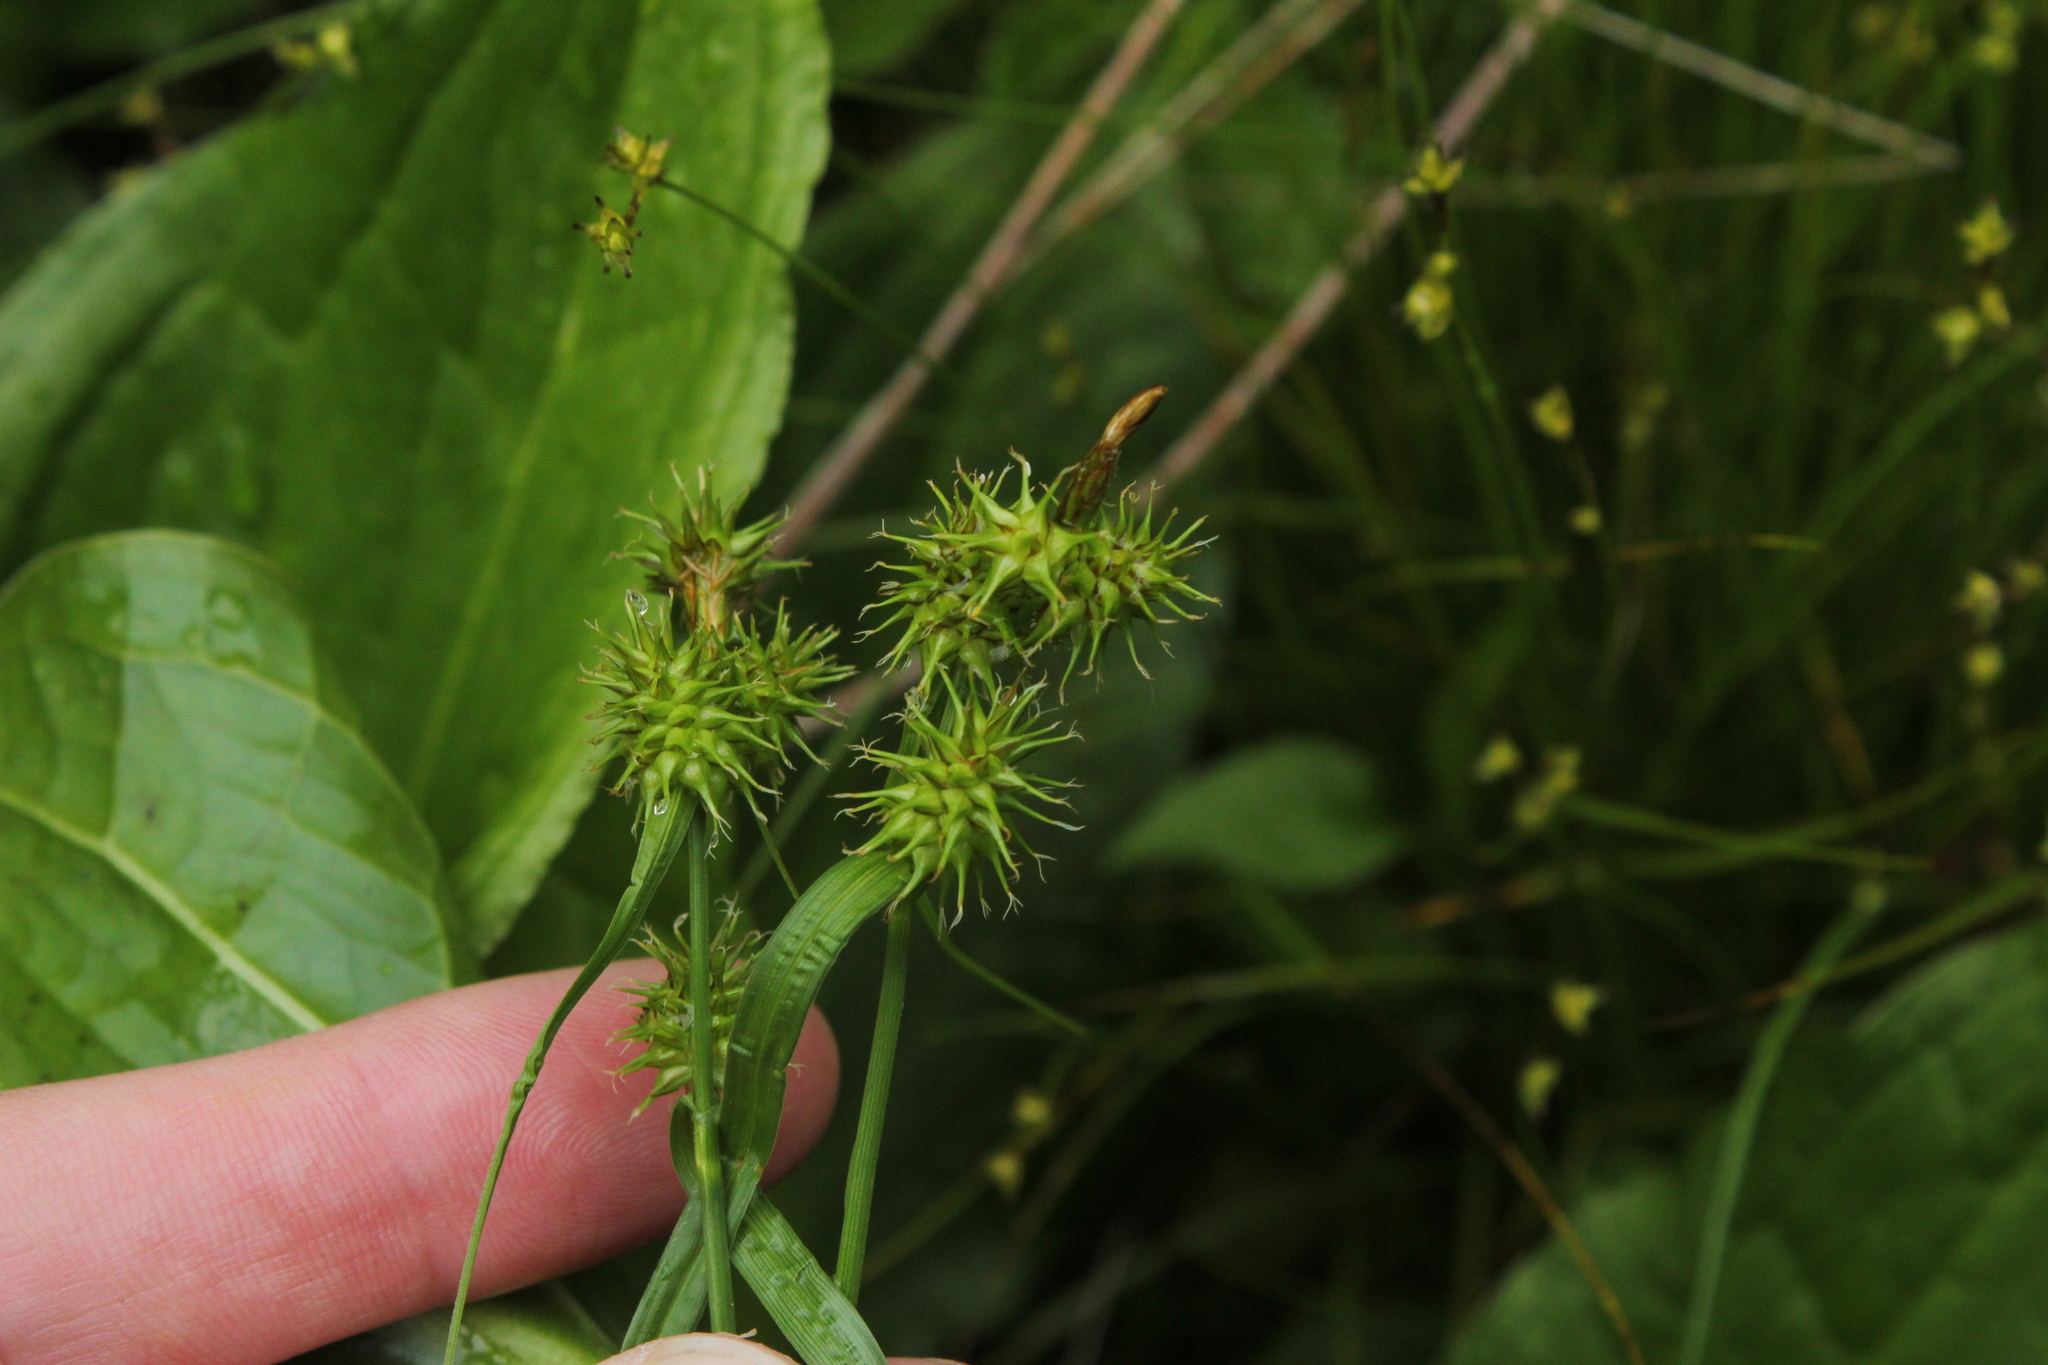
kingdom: Plantae
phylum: Tracheophyta
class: Liliopsida
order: Poales
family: Cyperaceae
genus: Carex
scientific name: Carex flava
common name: Large yellow-sedge
